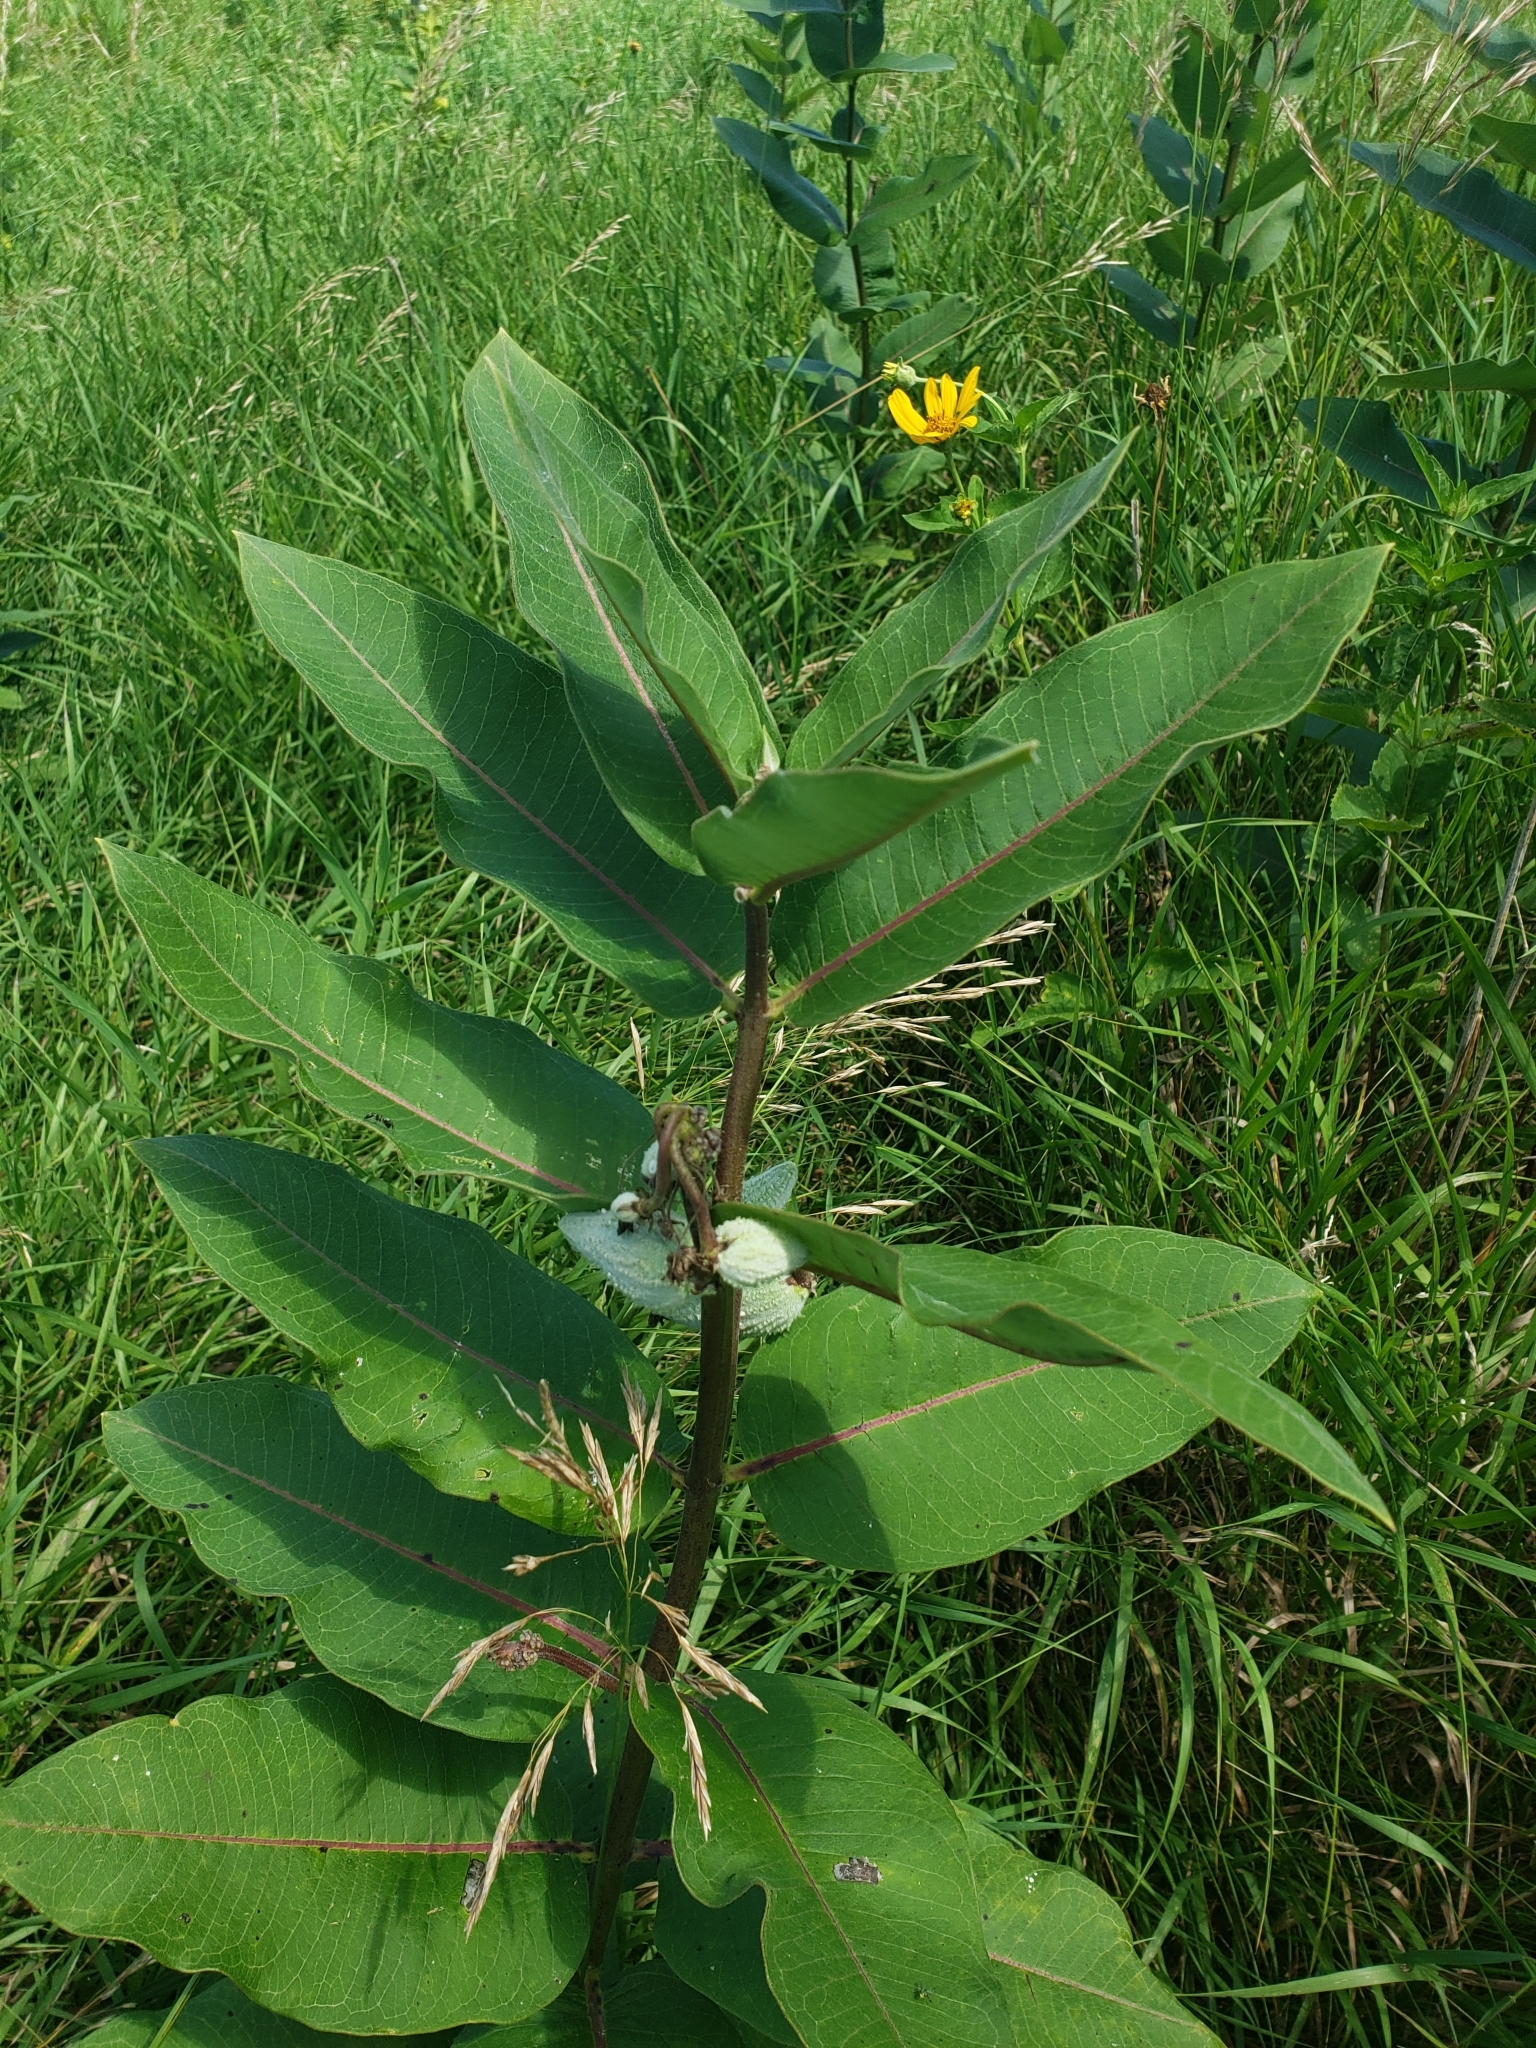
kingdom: Plantae
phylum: Tracheophyta
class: Magnoliopsida
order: Gentianales
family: Apocynaceae
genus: Asclepias
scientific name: Asclepias syriaca
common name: Common milkweed
